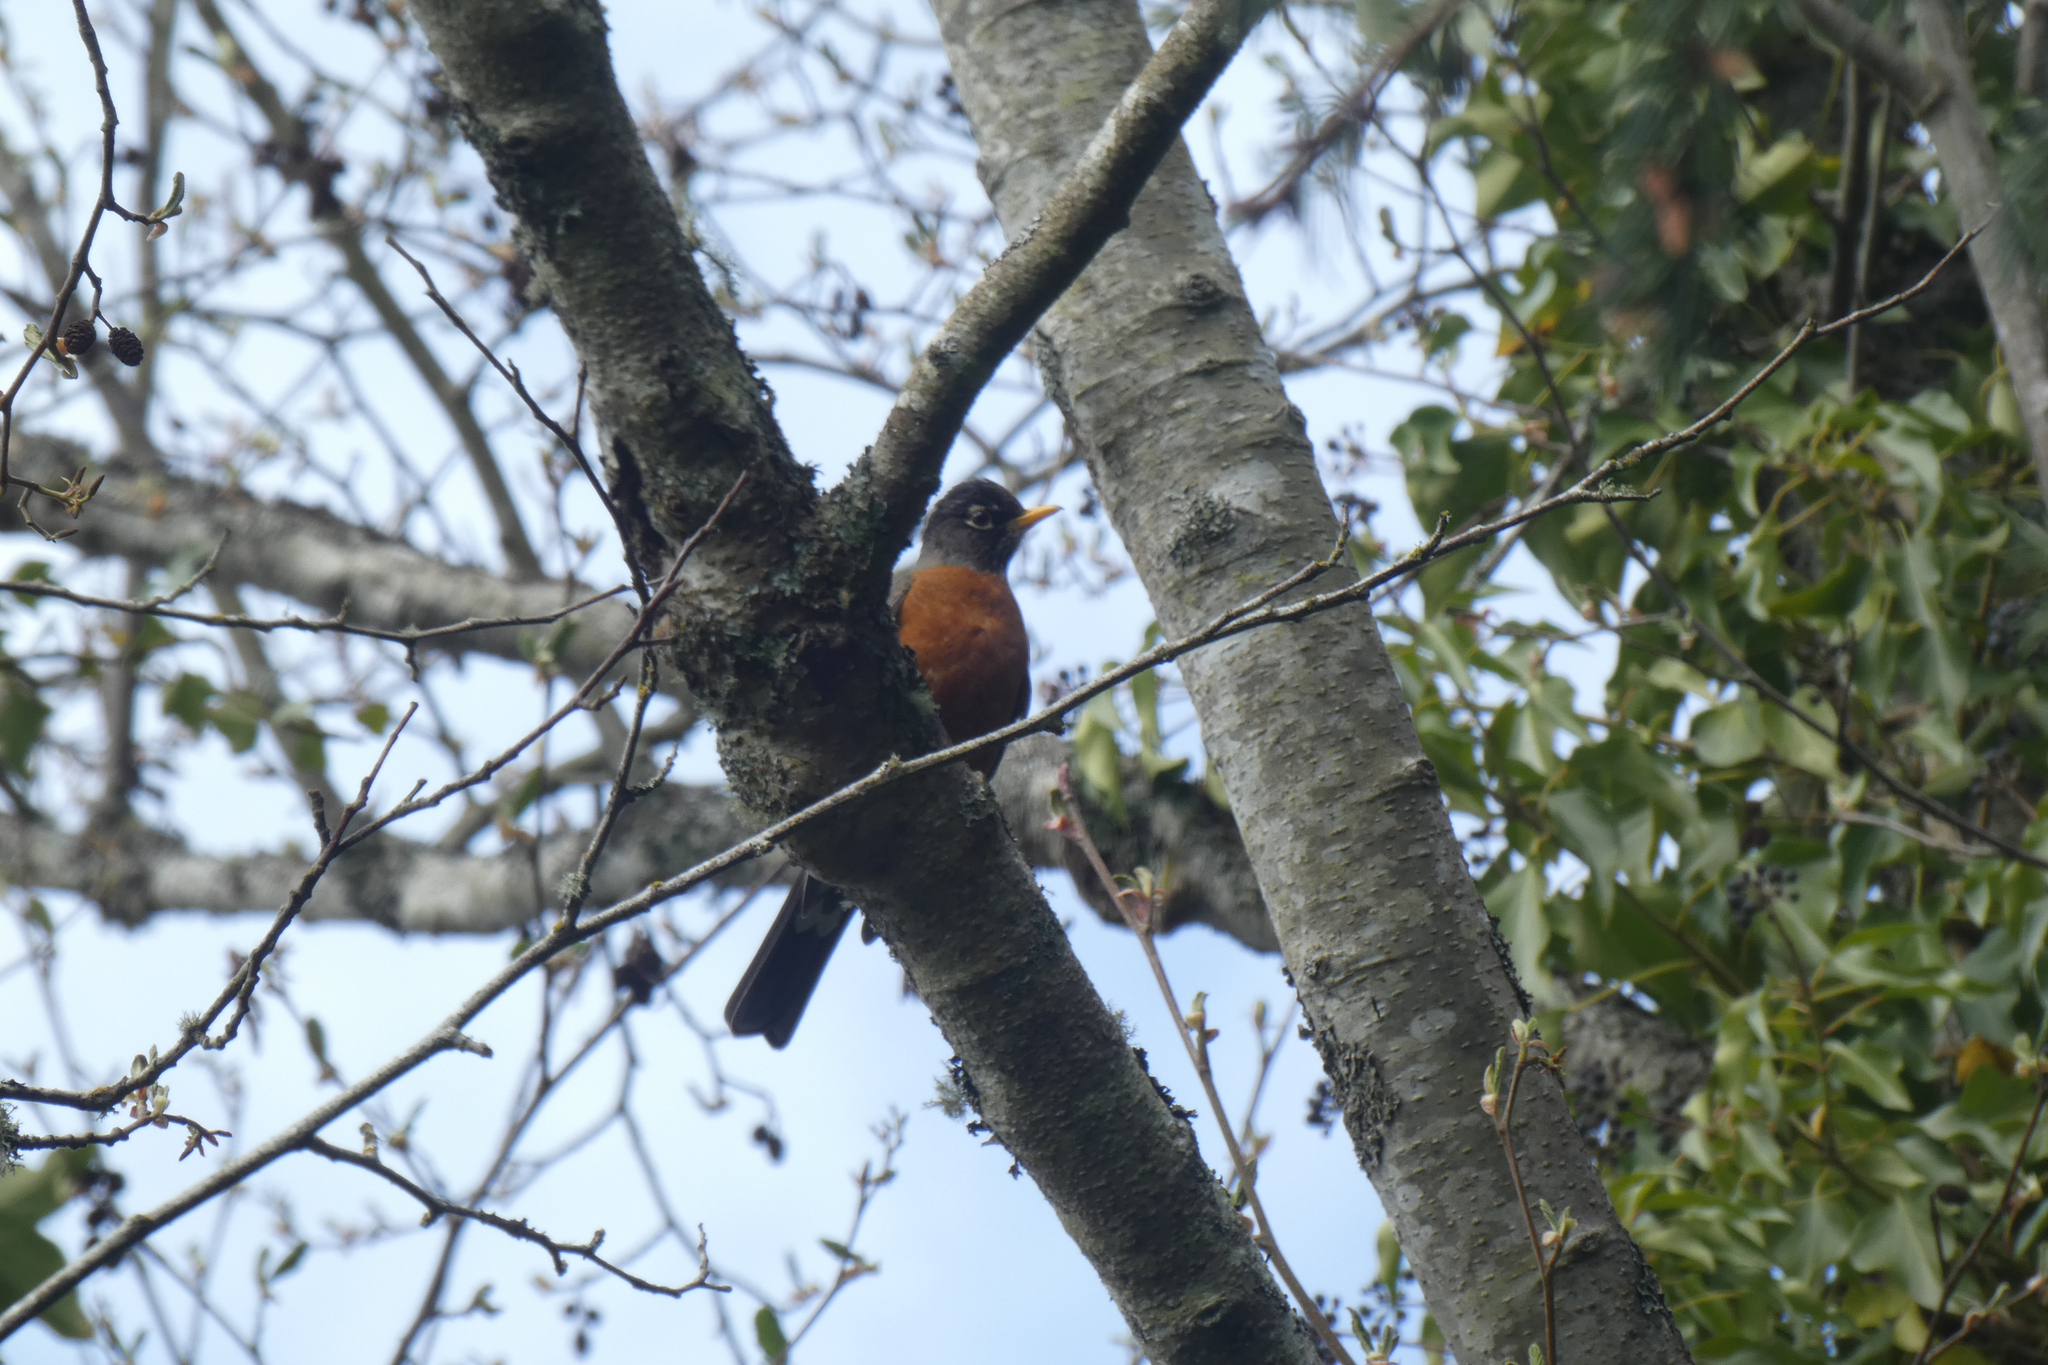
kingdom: Animalia
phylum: Chordata
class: Aves
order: Passeriformes
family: Turdidae
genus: Turdus
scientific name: Turdus migratorius
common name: American robin
